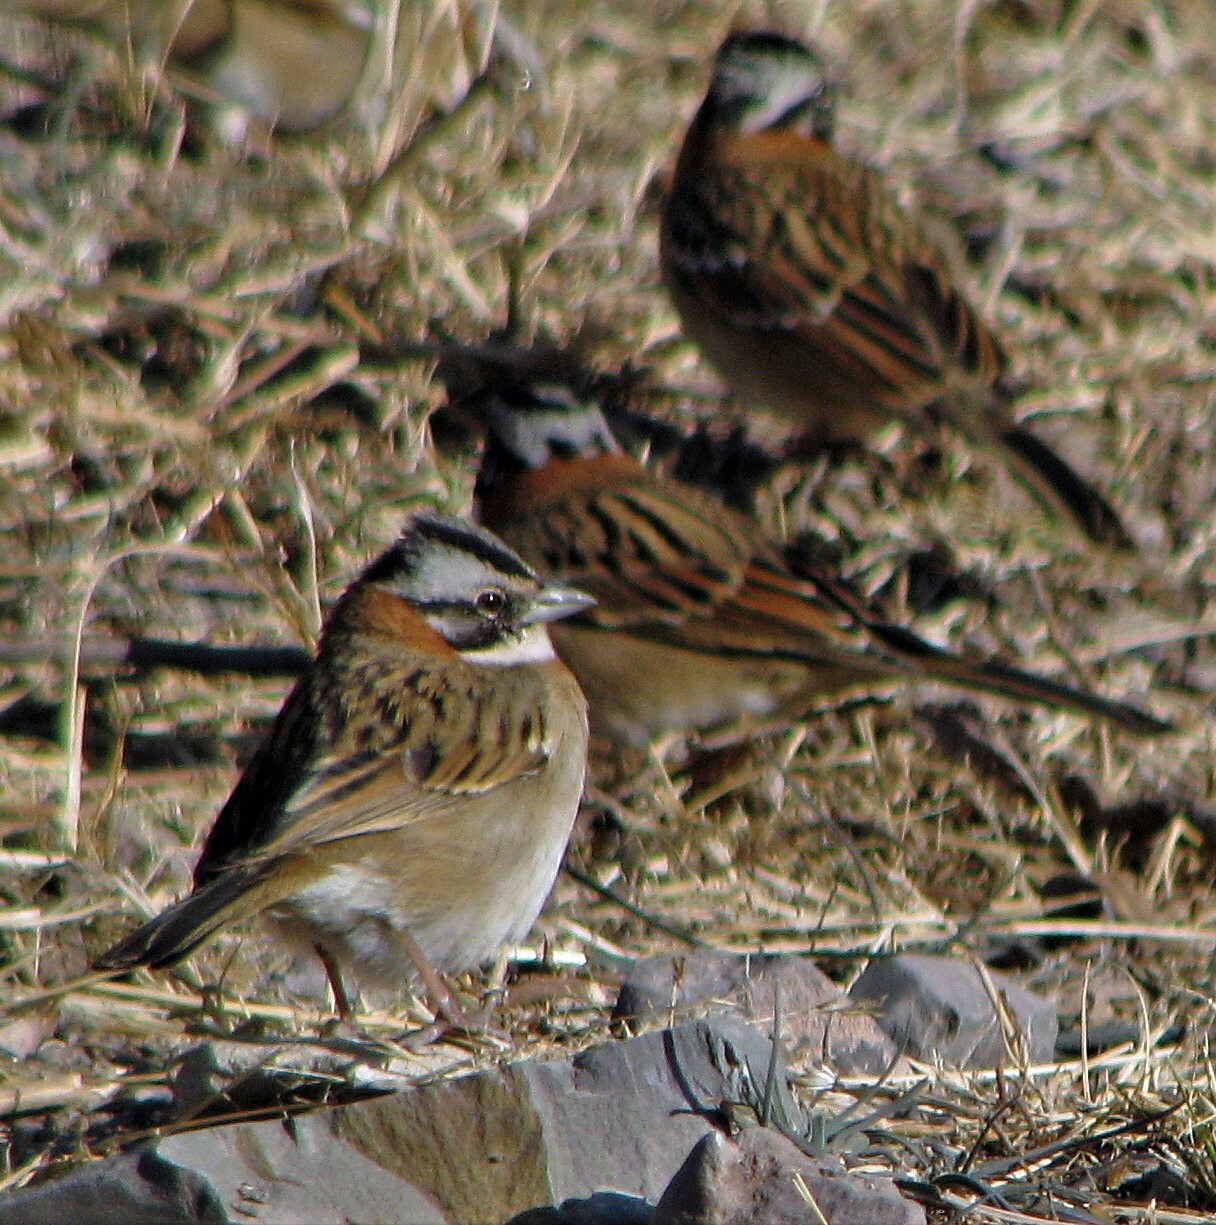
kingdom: Animalia
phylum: Chordata
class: Aves
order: Passeriformes
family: Passerellidae
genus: Zonotrichia
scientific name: Zonotrichia capensis
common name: Rufous-collared sparrow
